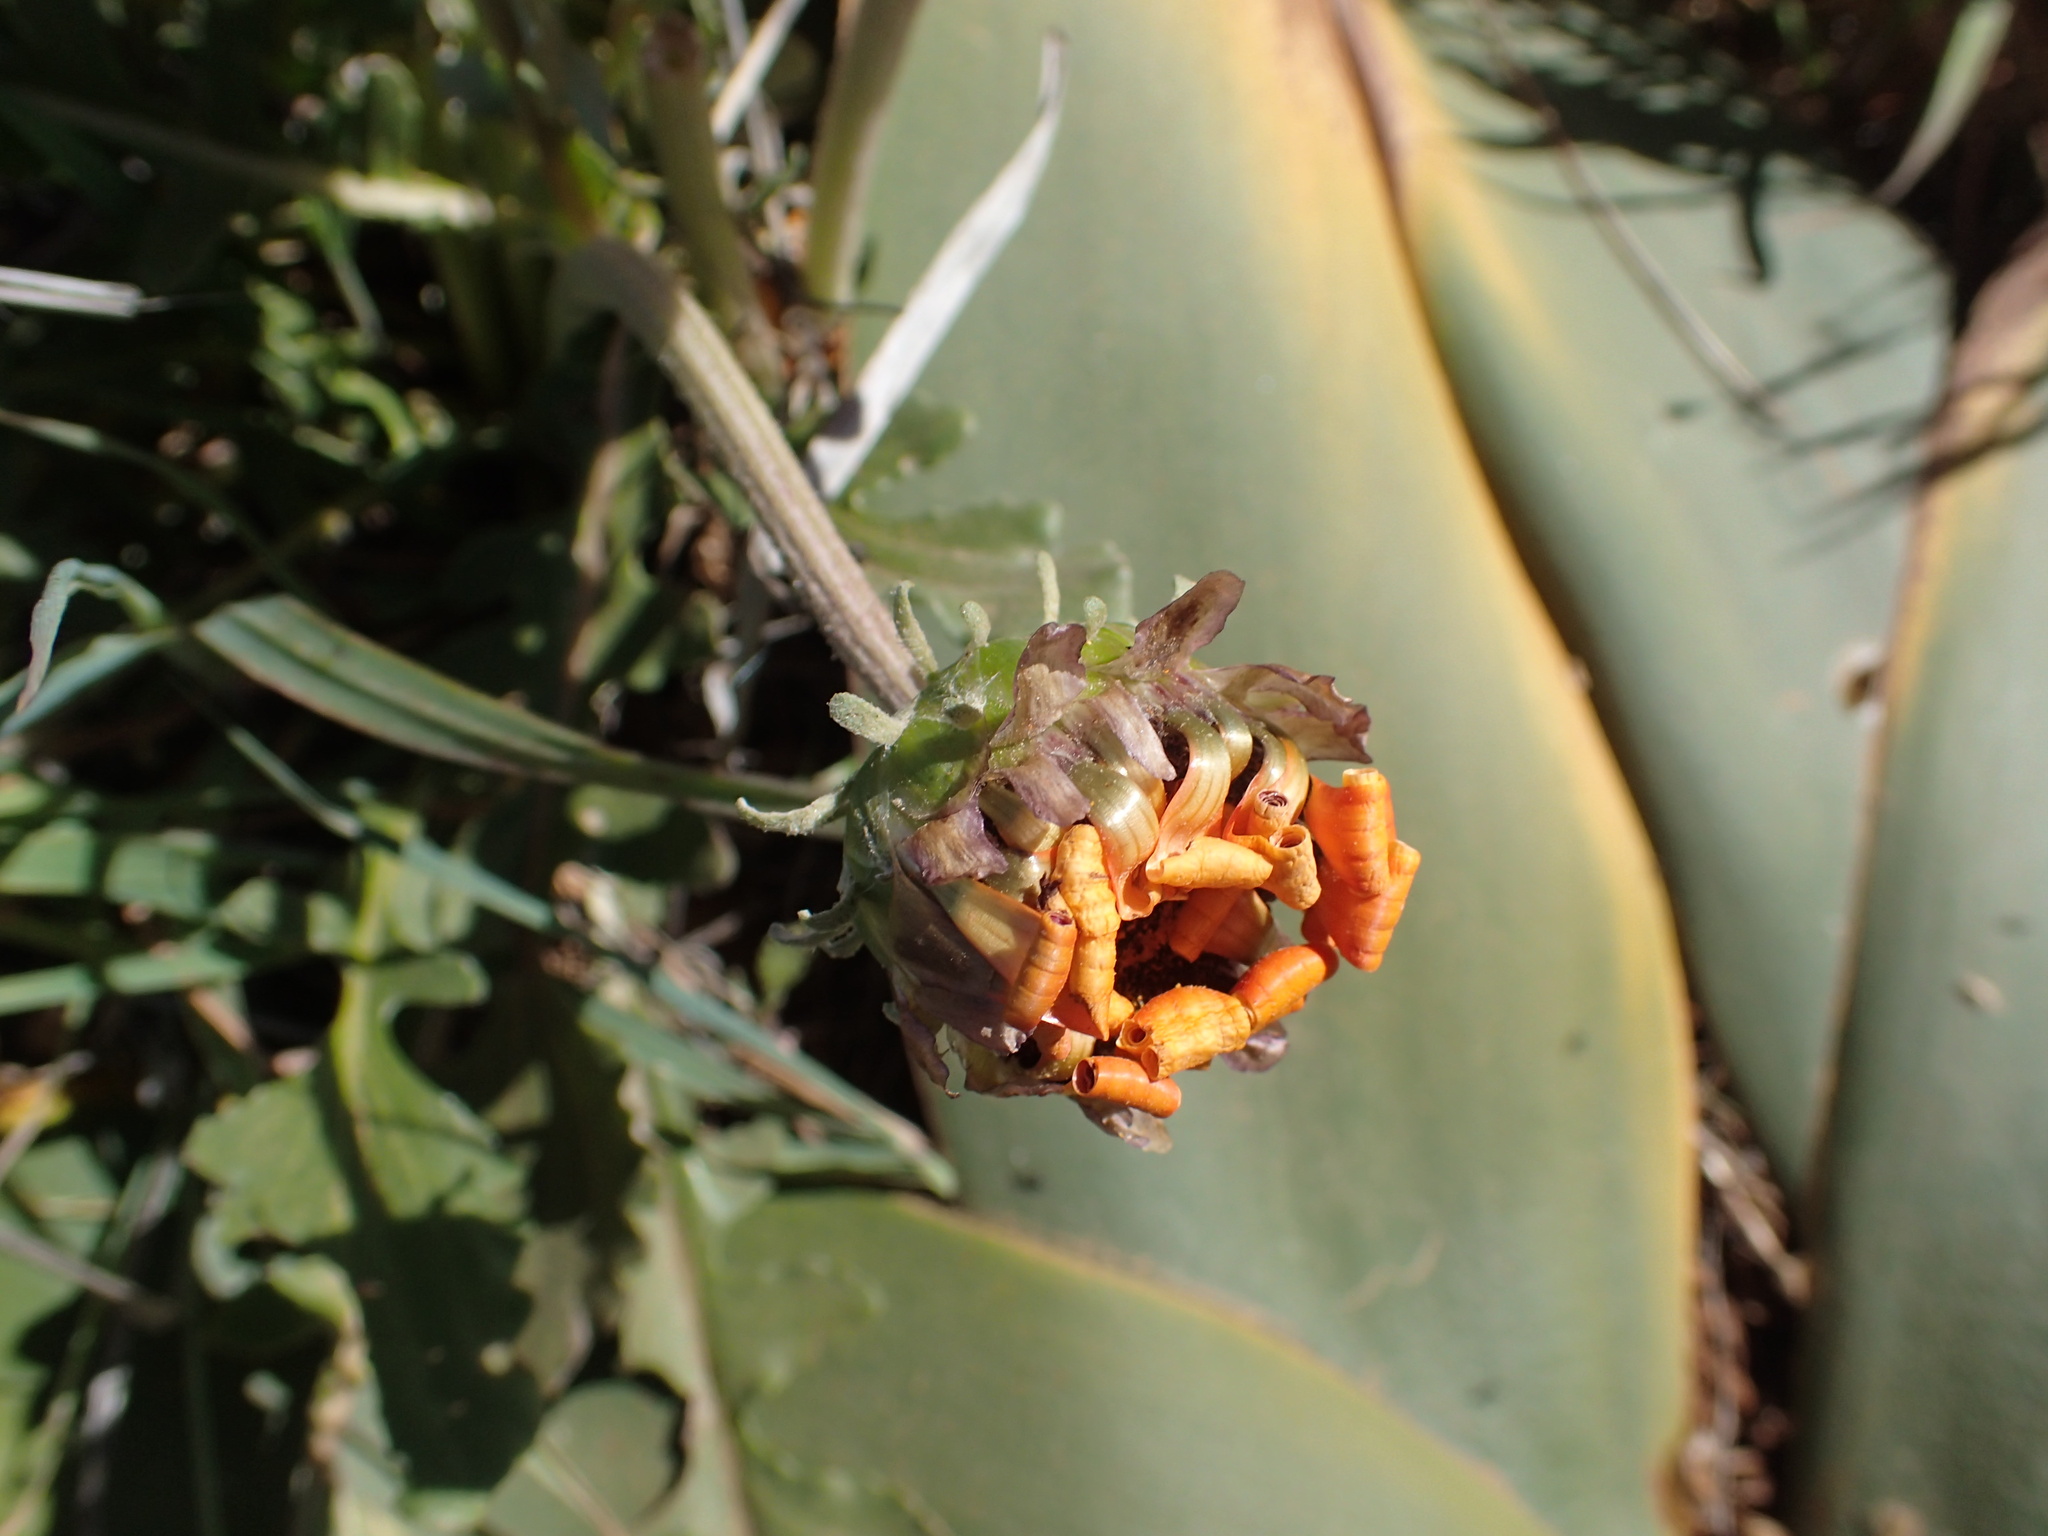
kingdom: Plantae
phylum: Tracheophyta
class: Magnoliopsida
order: Asterales
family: Asteraceae
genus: Arctotis
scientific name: Arctotis acaulis
